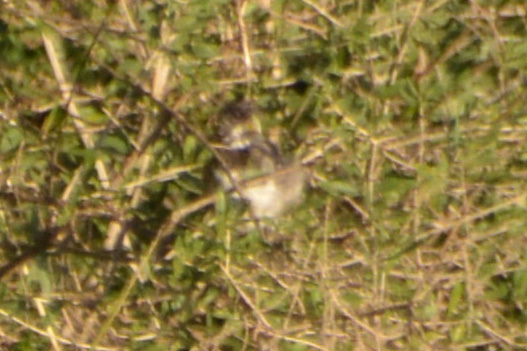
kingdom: Animalia
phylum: Chordata
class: Aves
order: Passeriformes
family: Thraupidae
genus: Sporophila
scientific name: Sporophila caerulescens
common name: Double-collared seedeater
